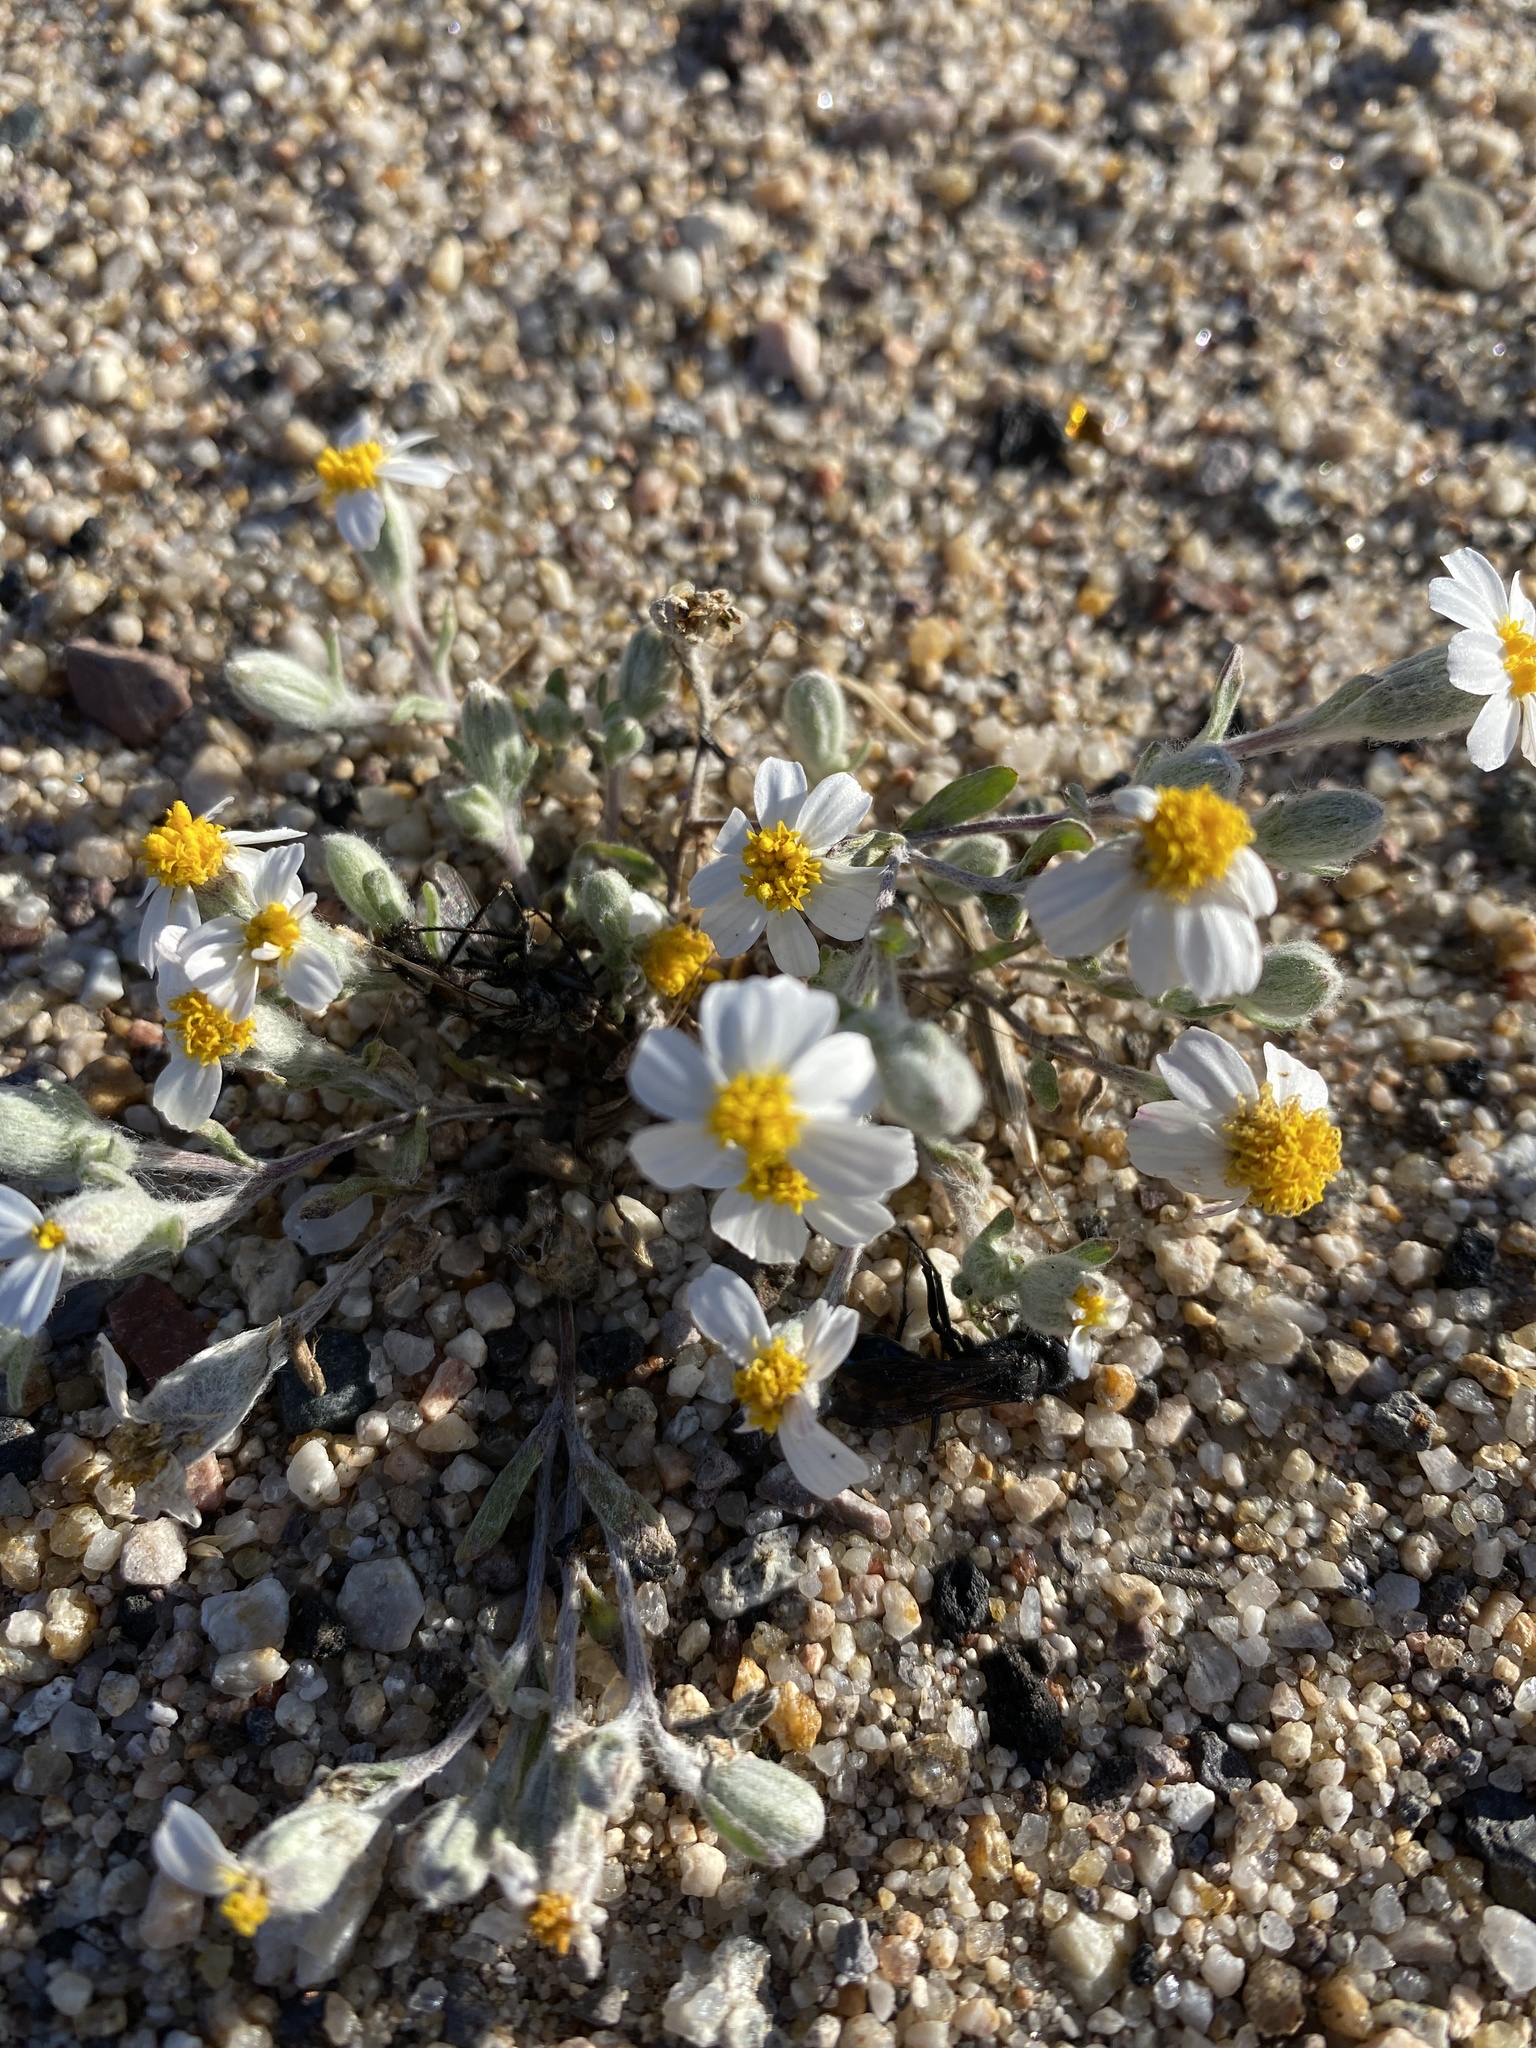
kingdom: Plantae
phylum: Tracheophyta
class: Magnoliopsida
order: Asterales
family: Asteraceae
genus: Eriophyllum
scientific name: Eriophyllum lanosum
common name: White easter-bonnets
